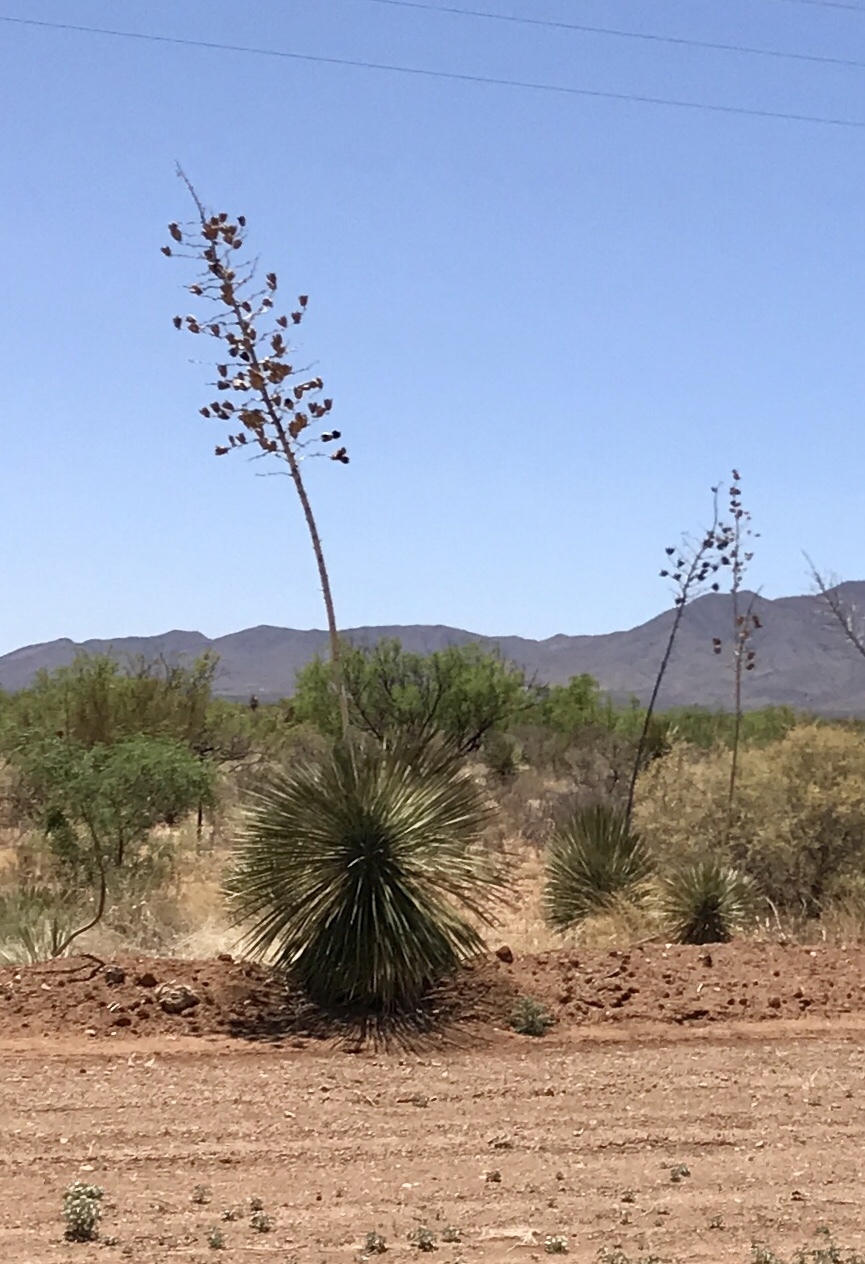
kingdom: Plantae
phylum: Tracheophyta
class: Liliopsida
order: Asparagales
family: Asparagaceae
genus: Yucca
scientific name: Yucca elata
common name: Palmella
